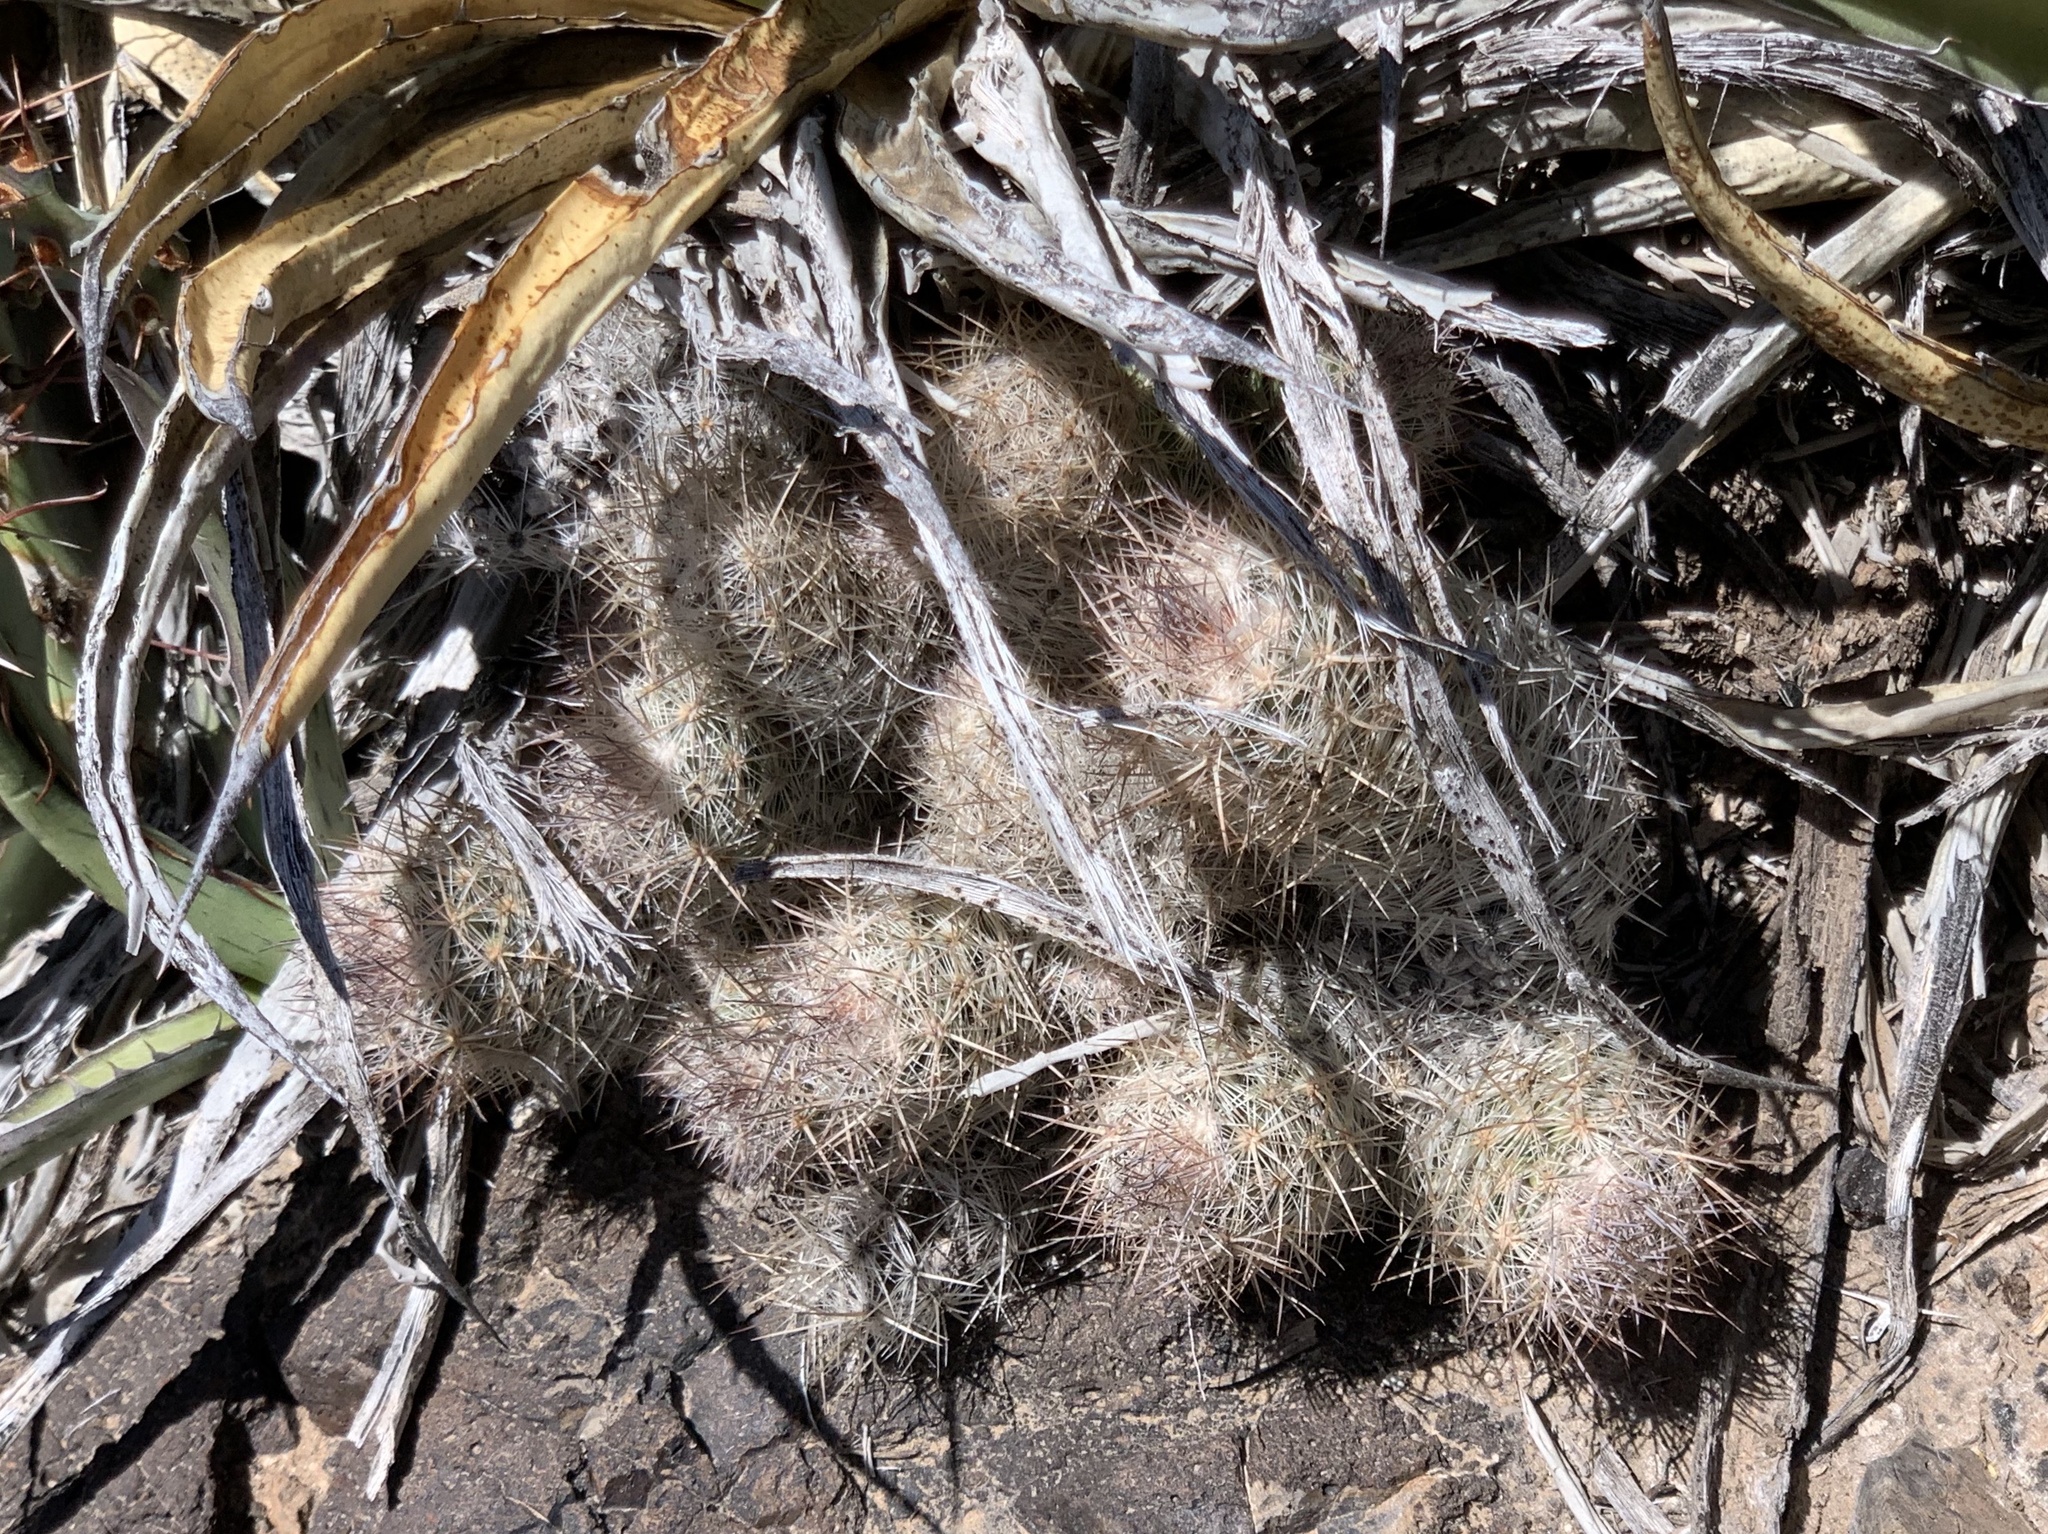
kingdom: Plantae
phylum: Tracheophyta
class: Magnoliopsida
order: Caryophyllales
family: Cactaceae
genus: Pelecyphora
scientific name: Pelecyphora tuberculosa
